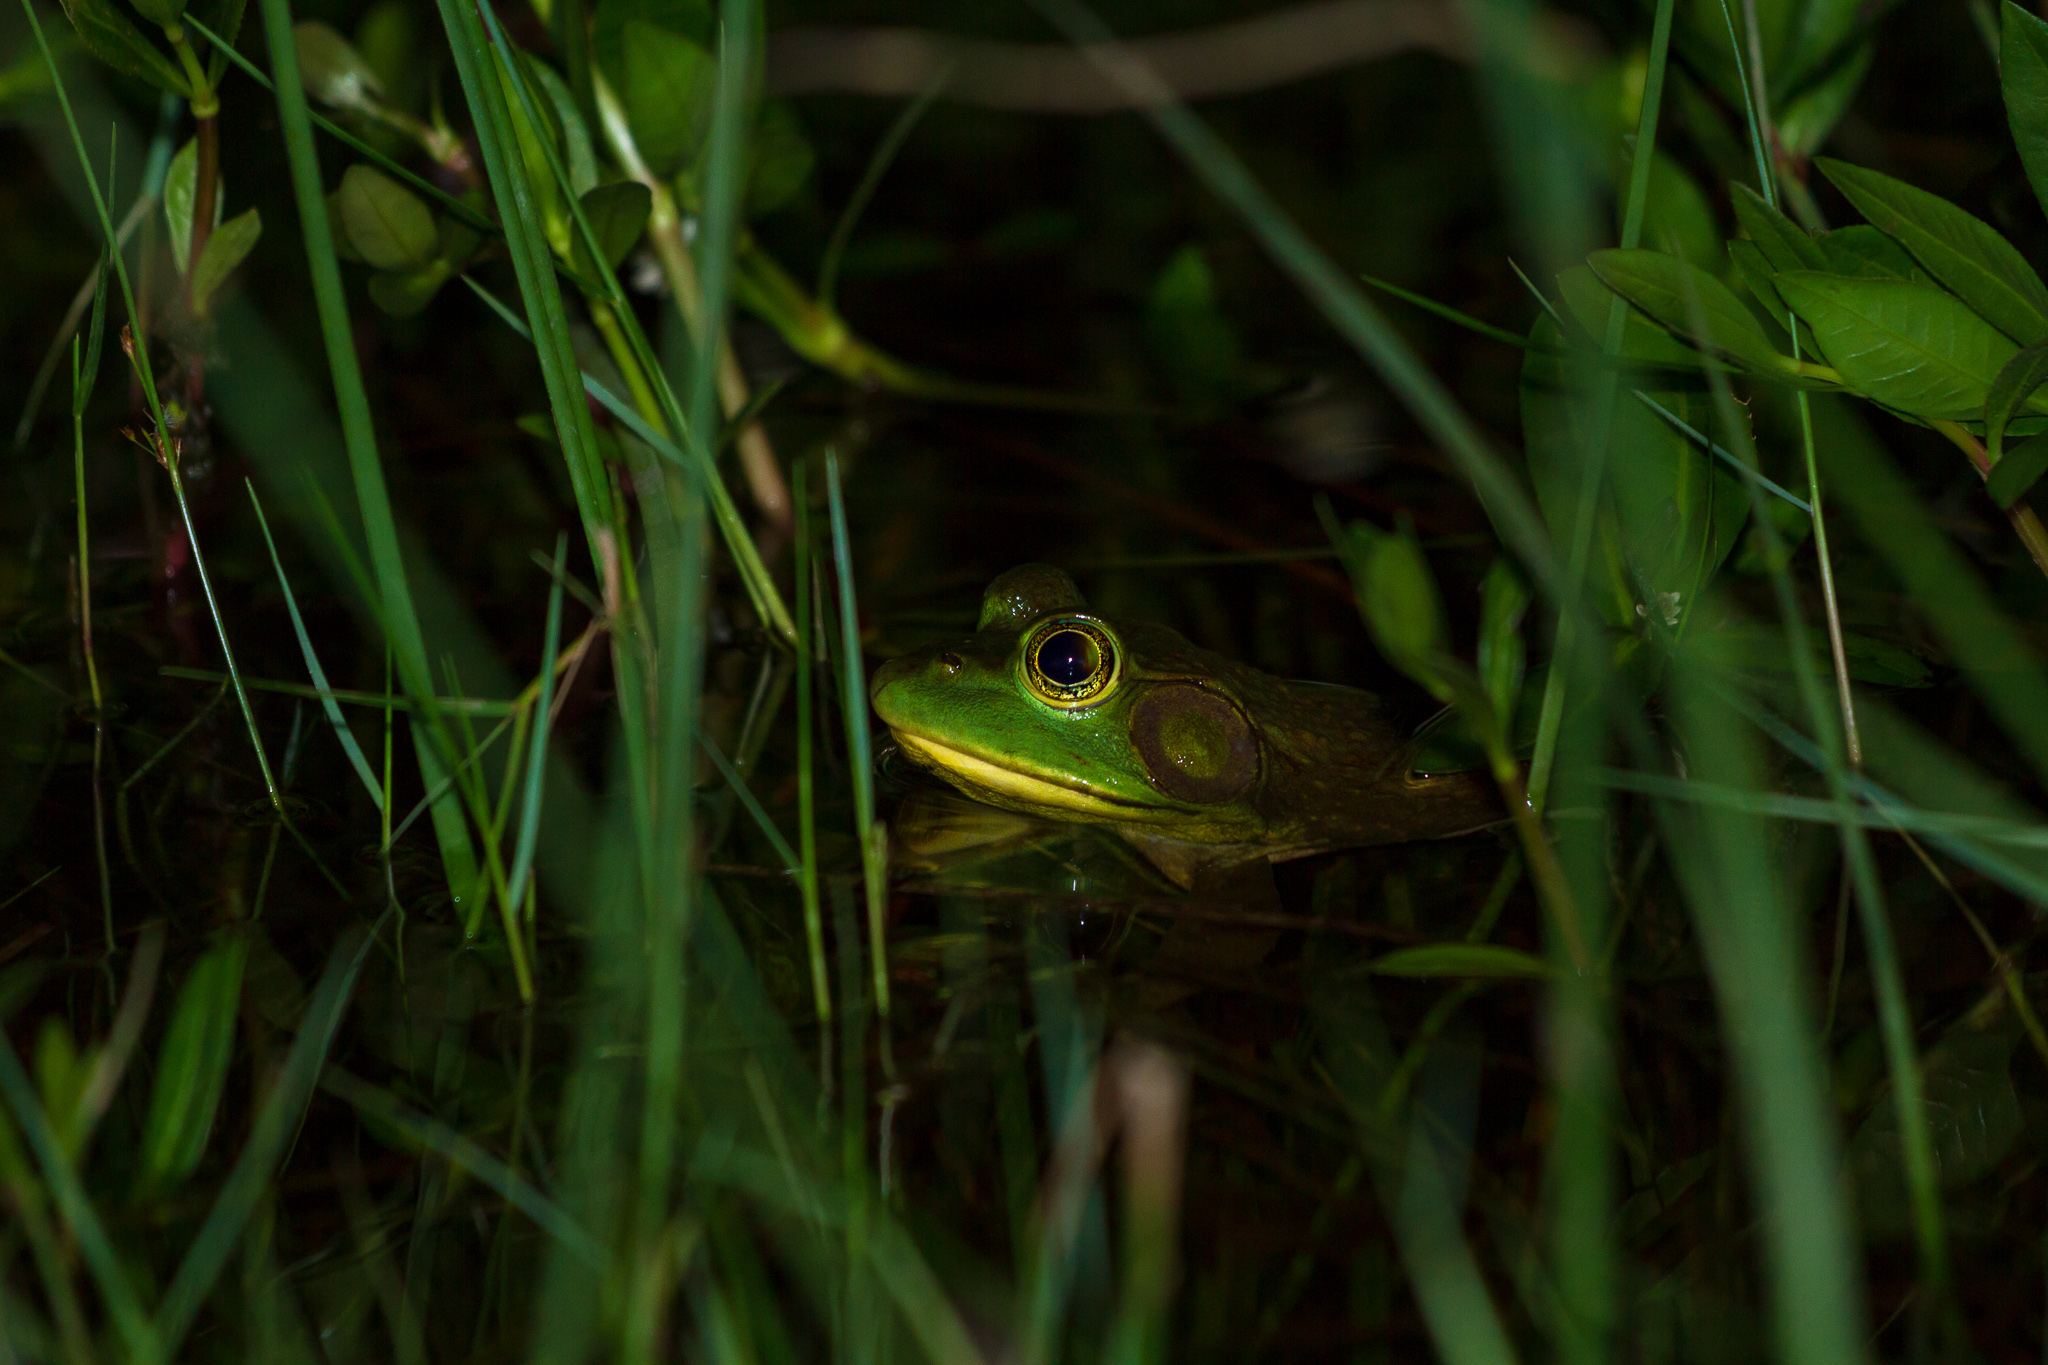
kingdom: Animalia
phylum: Chordata
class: Amphibia
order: Anura
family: Ranidae
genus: Lithobates
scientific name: Lithobates catesbeianus
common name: American bullfrog
